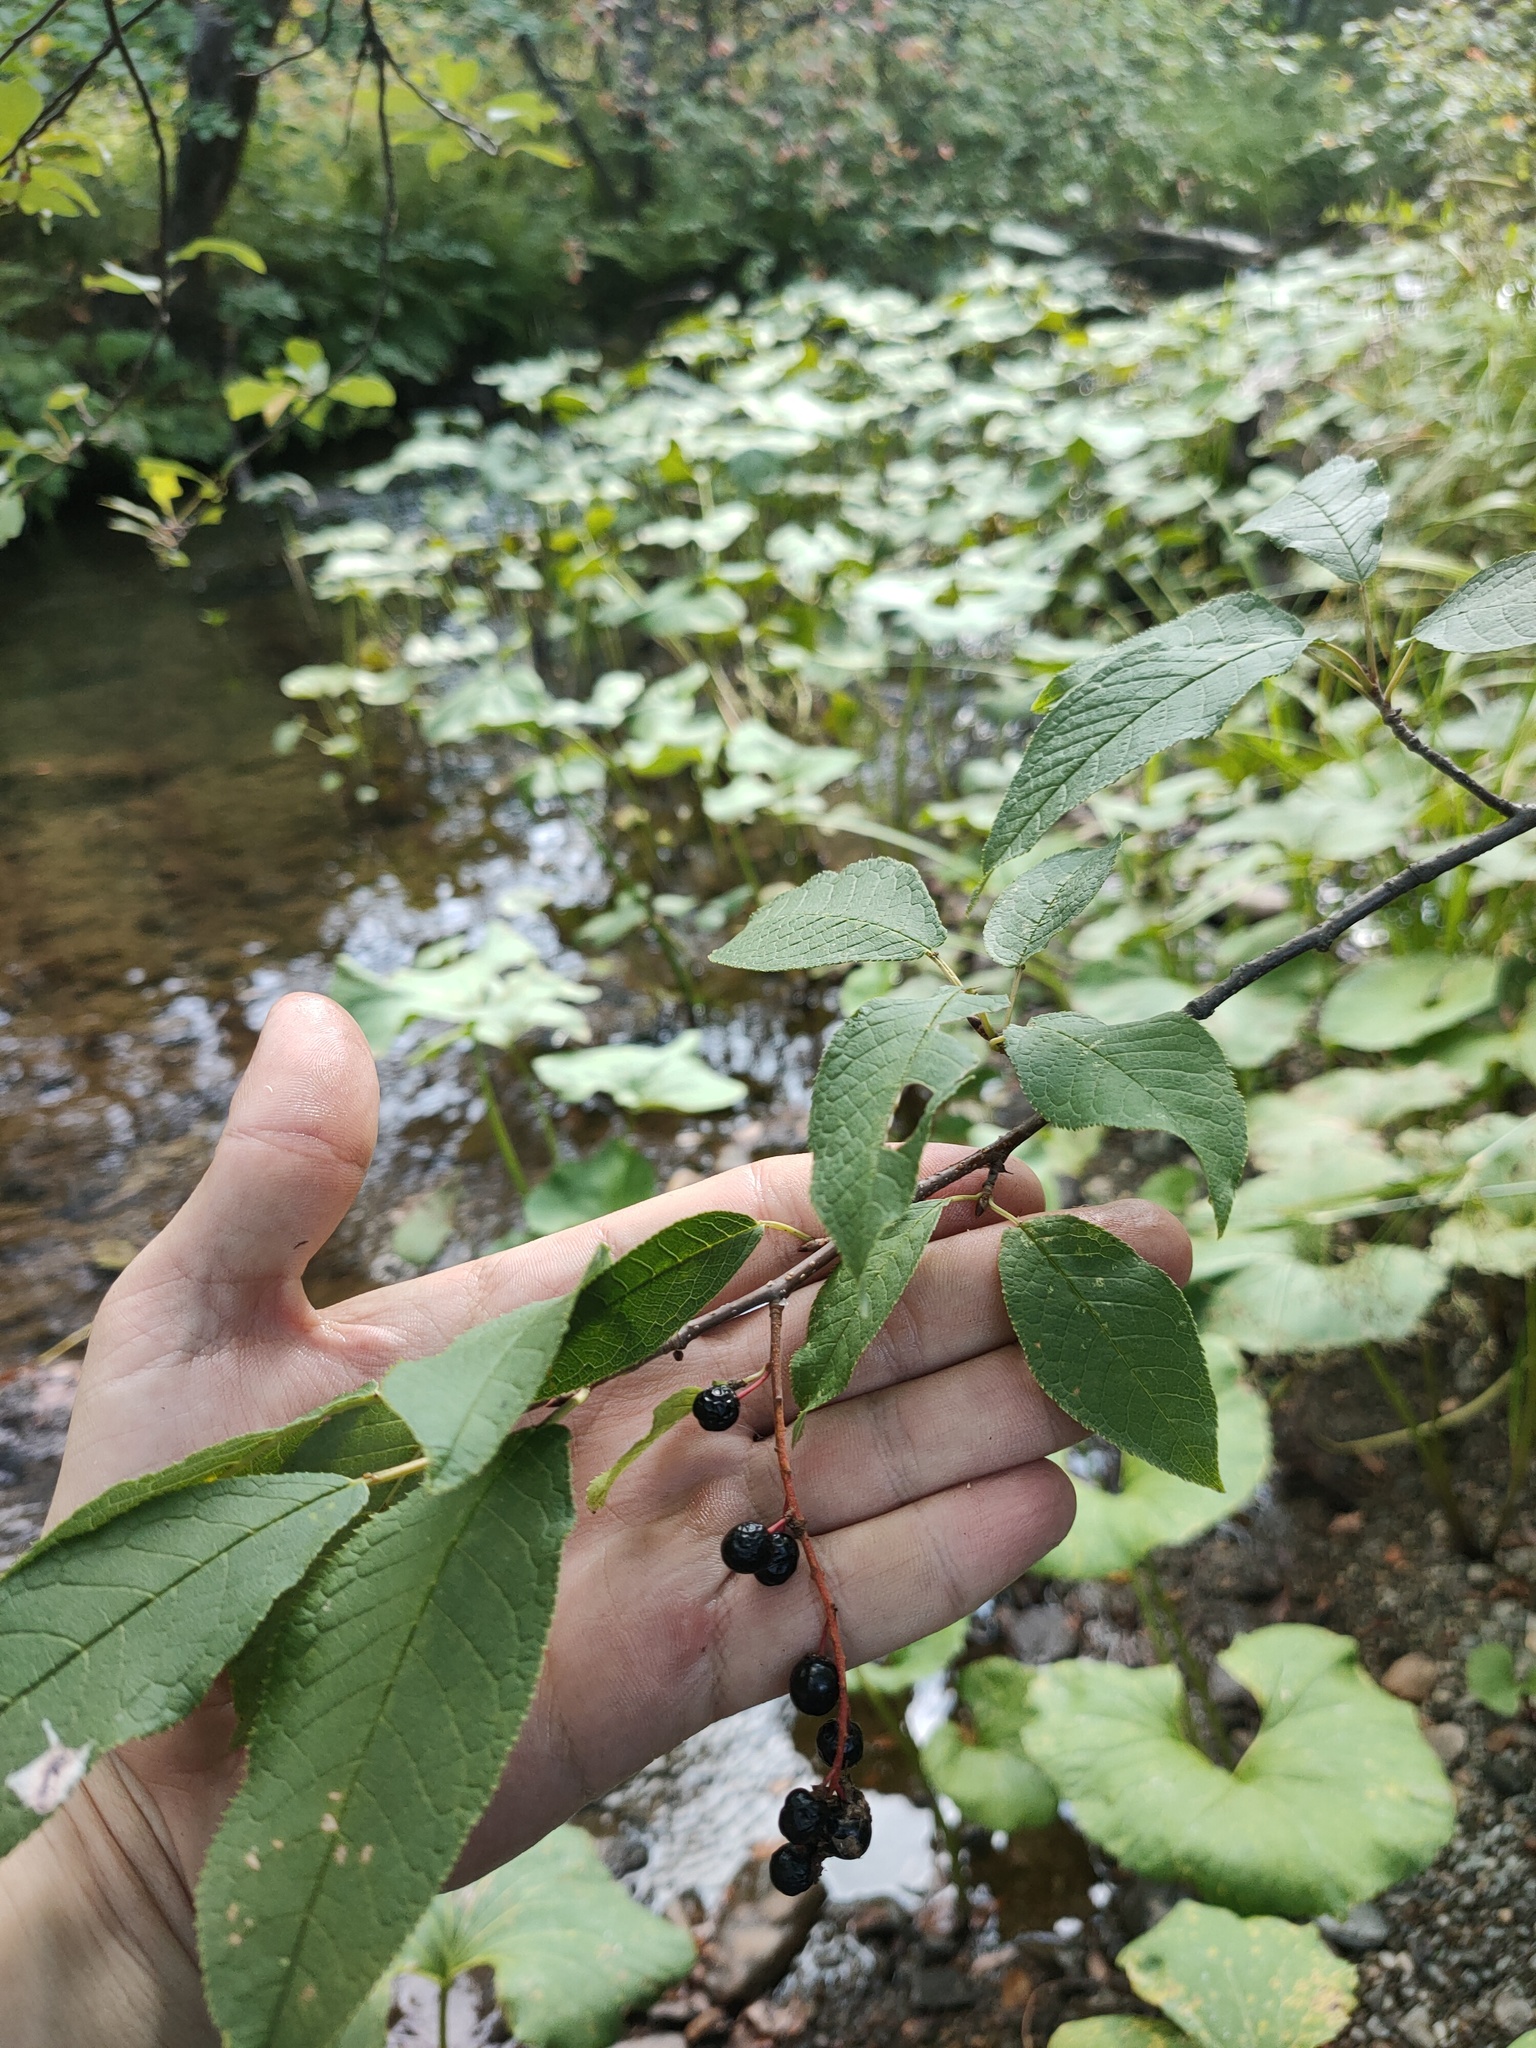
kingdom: Plantae
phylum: Tracheophyta
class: Magnoliopsida
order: Rosales
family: Rosaceae
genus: Prunus
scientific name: Prunus padus
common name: Bird cherry
